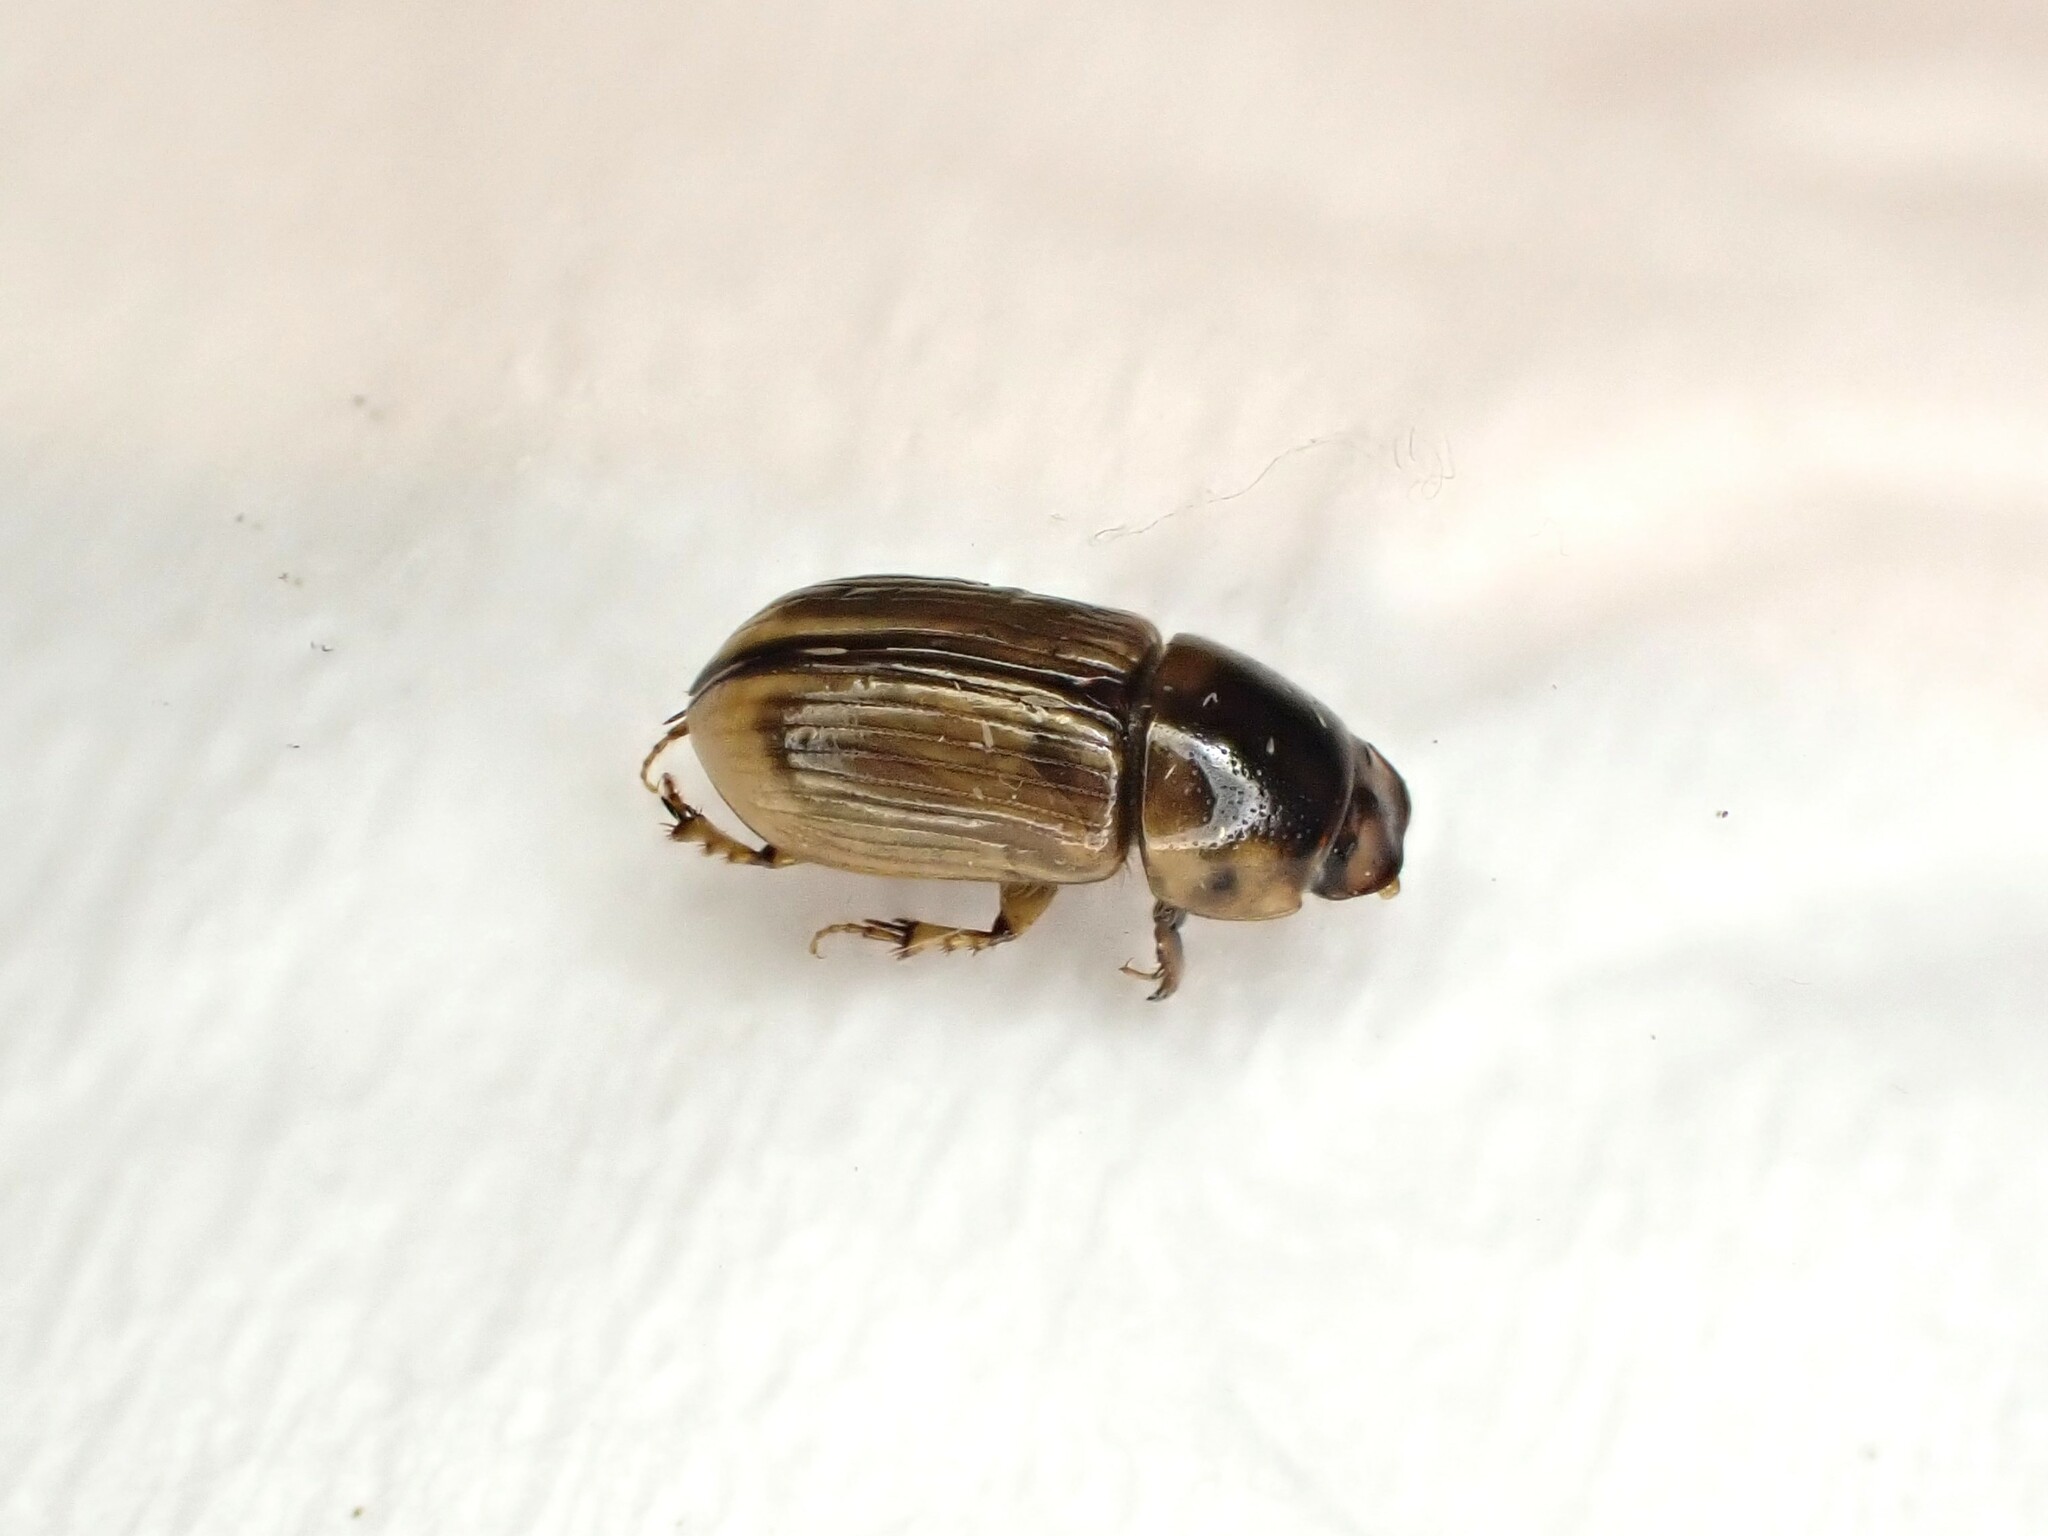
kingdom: Animalia
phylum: Arthropoda
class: Insecta
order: Coleoptera
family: Scarabaeidae
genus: Labarrus
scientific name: Labarrus lividus
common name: Scarab beetle
